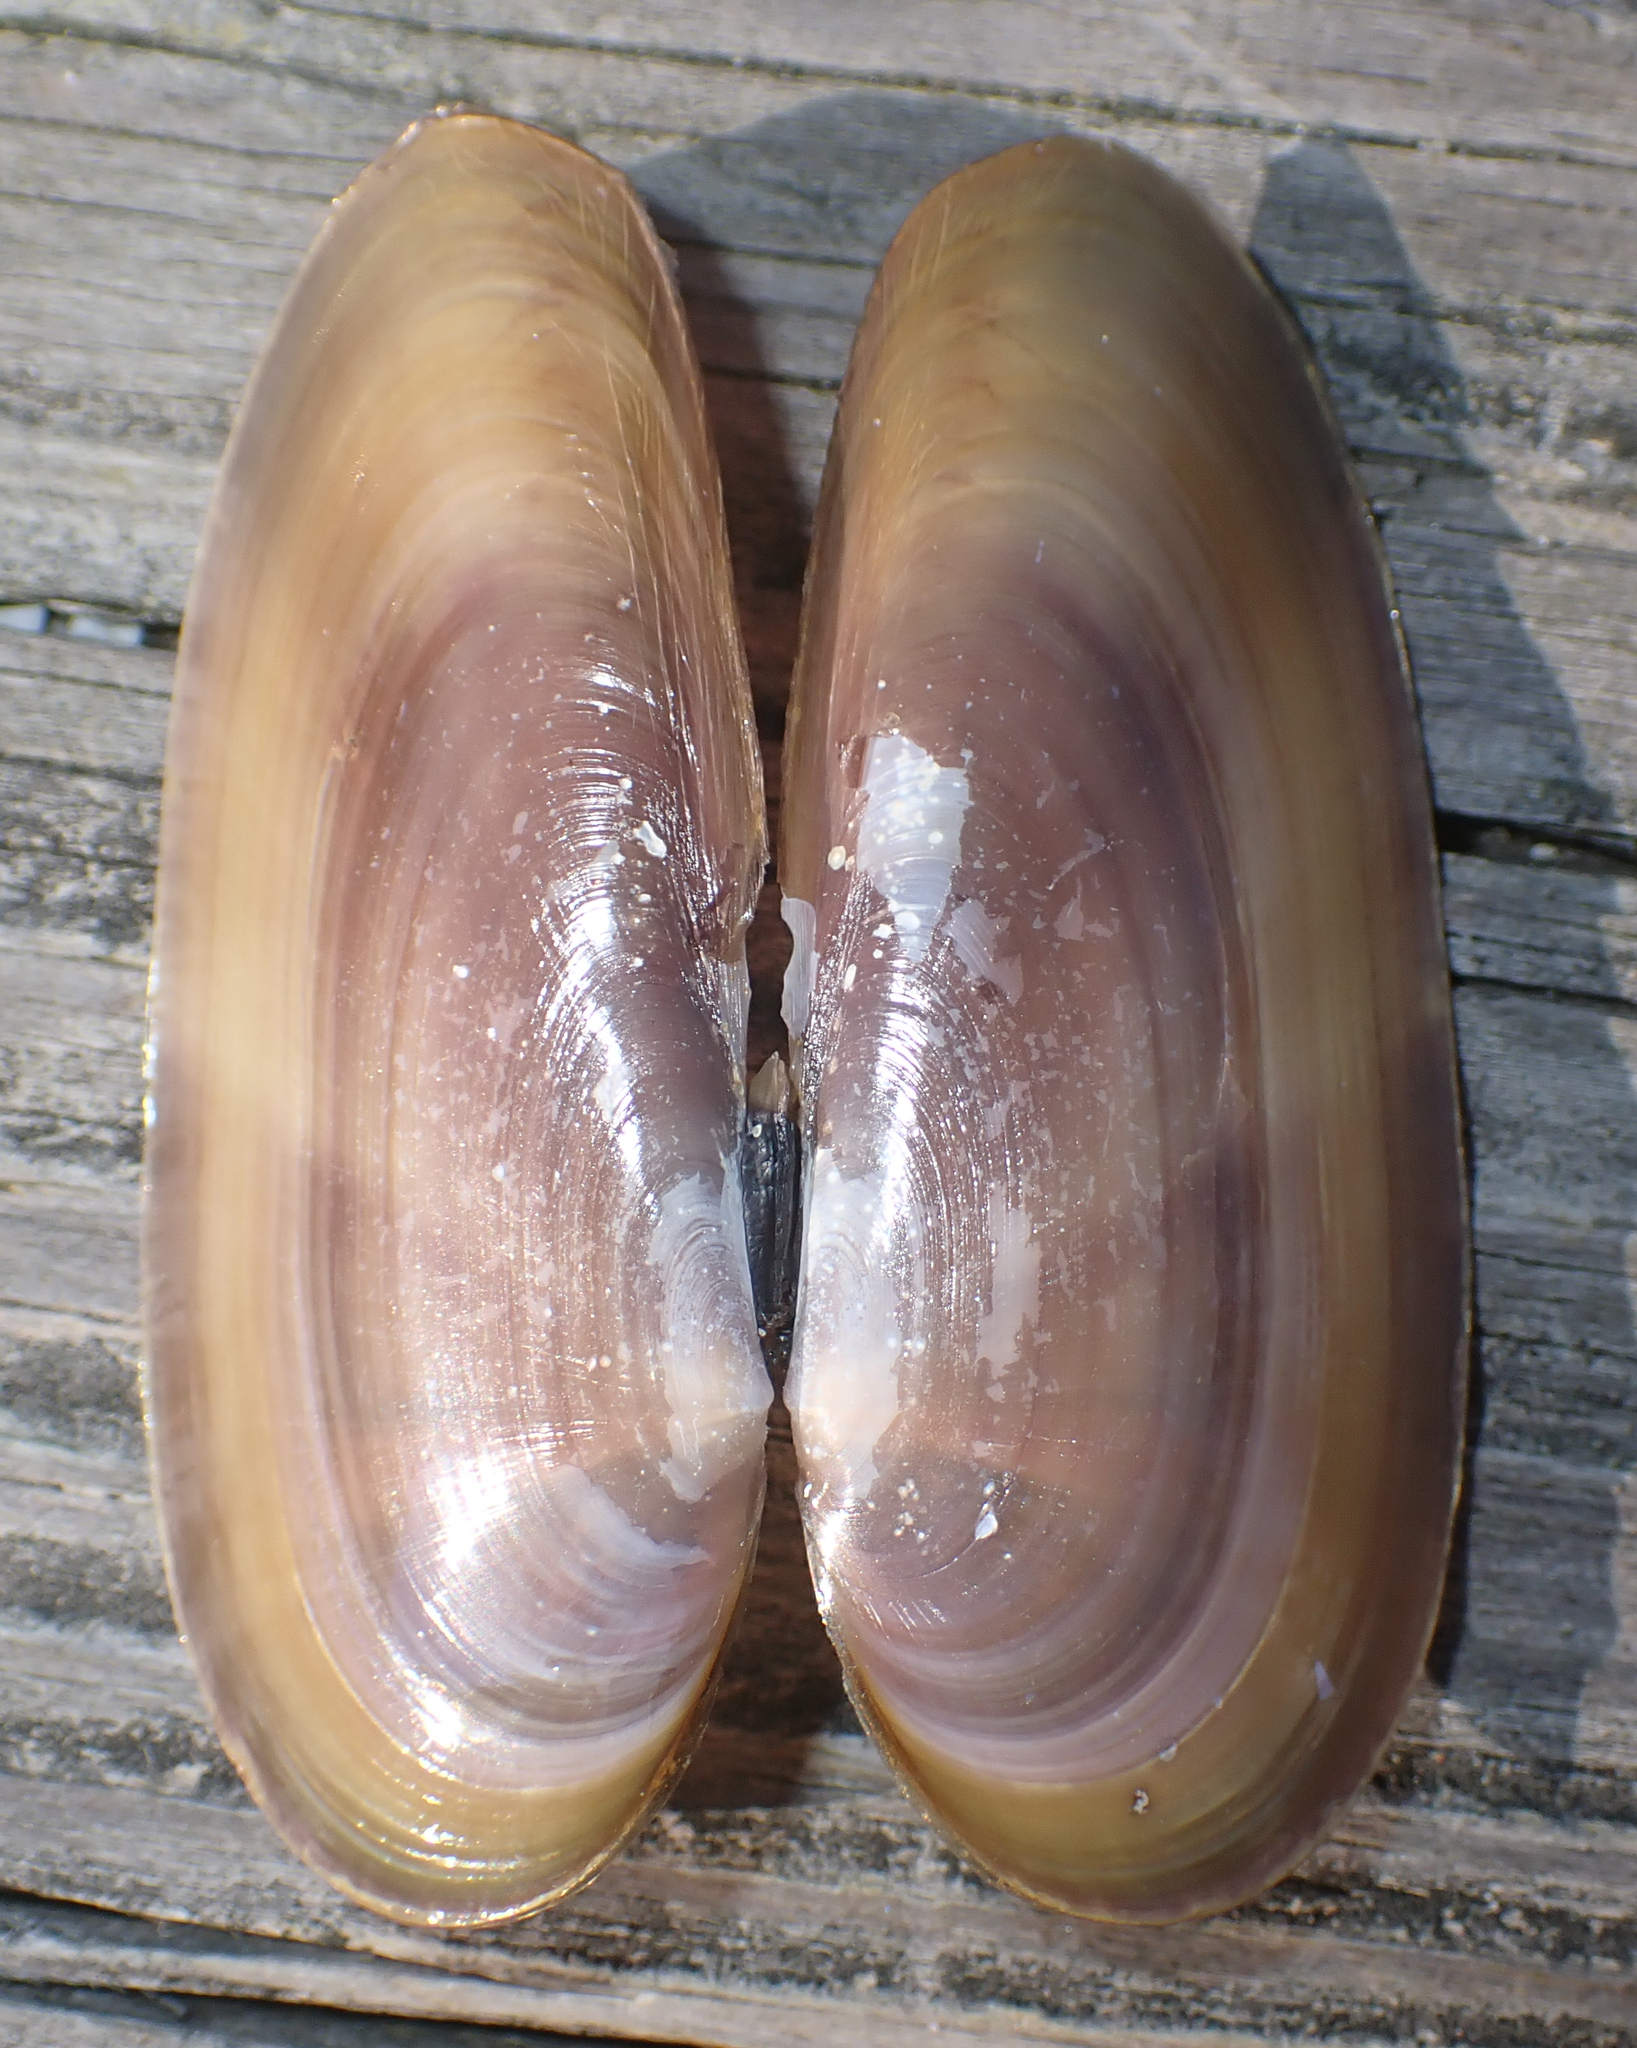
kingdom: Animalia
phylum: Mollusca
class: Bivalvia
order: Adapedonta
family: Pharidae
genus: Siliqua
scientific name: Siliqua costata
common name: Atlantic razor
